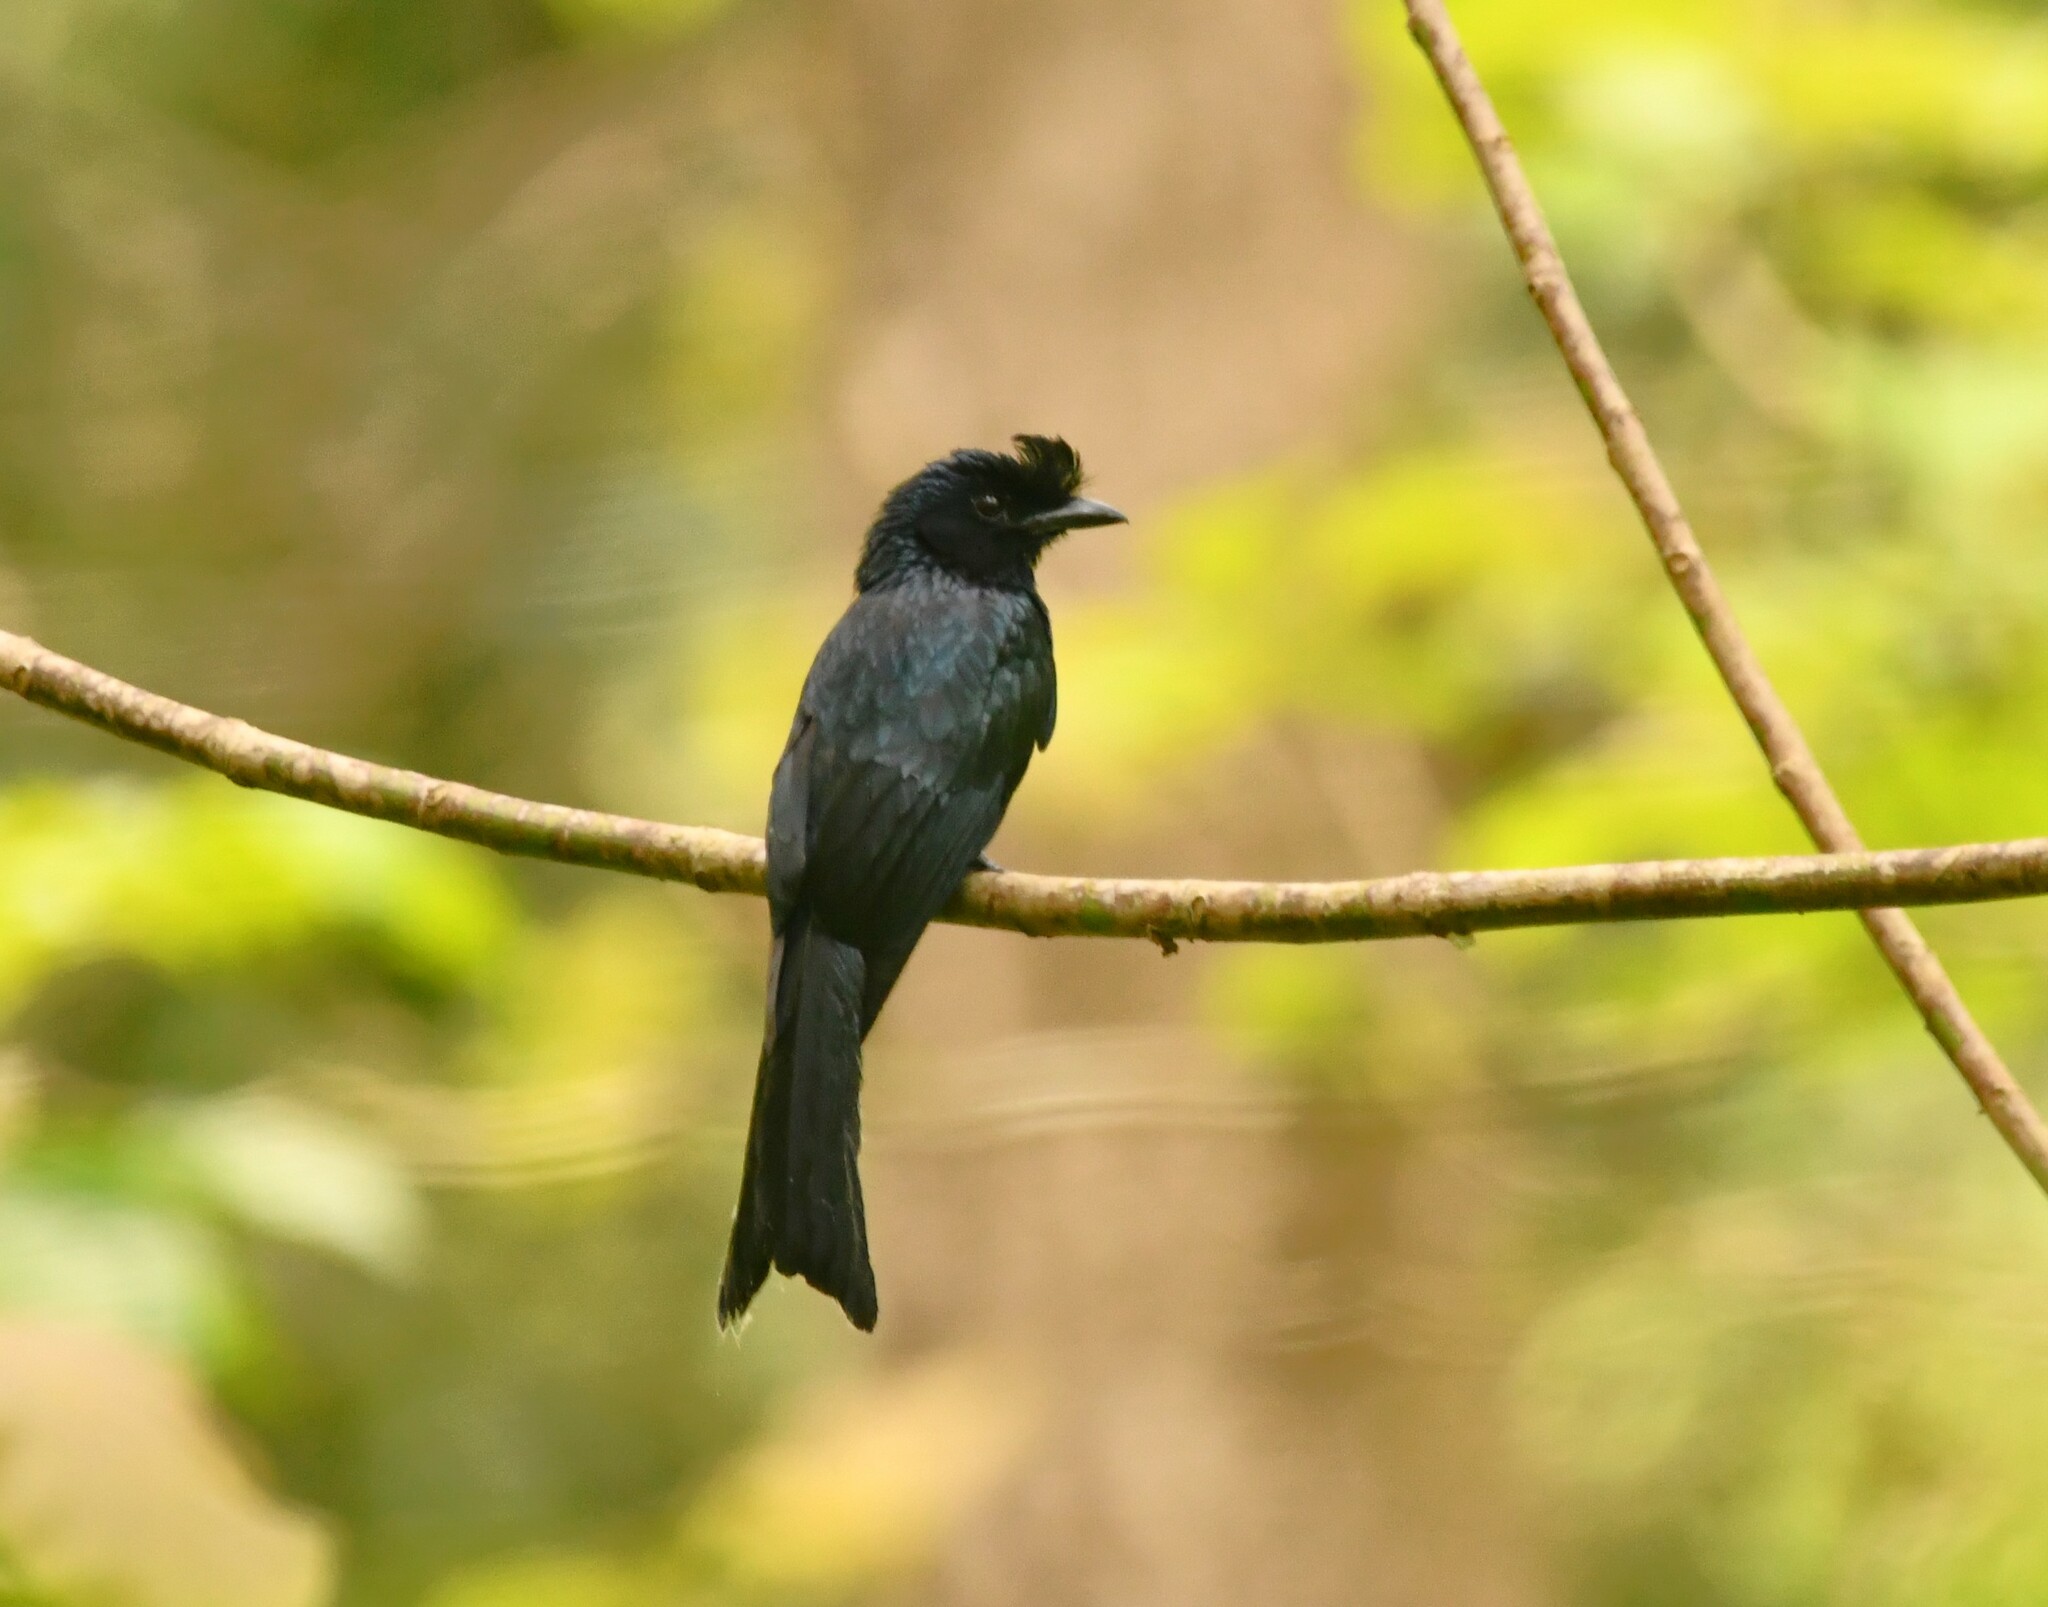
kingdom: Animalia
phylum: Chordata
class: Aves
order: Passeriformes
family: Dicruridae
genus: Dicrurus
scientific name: Dicrurus paradiseus
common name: Greater racket-tailed drongo
